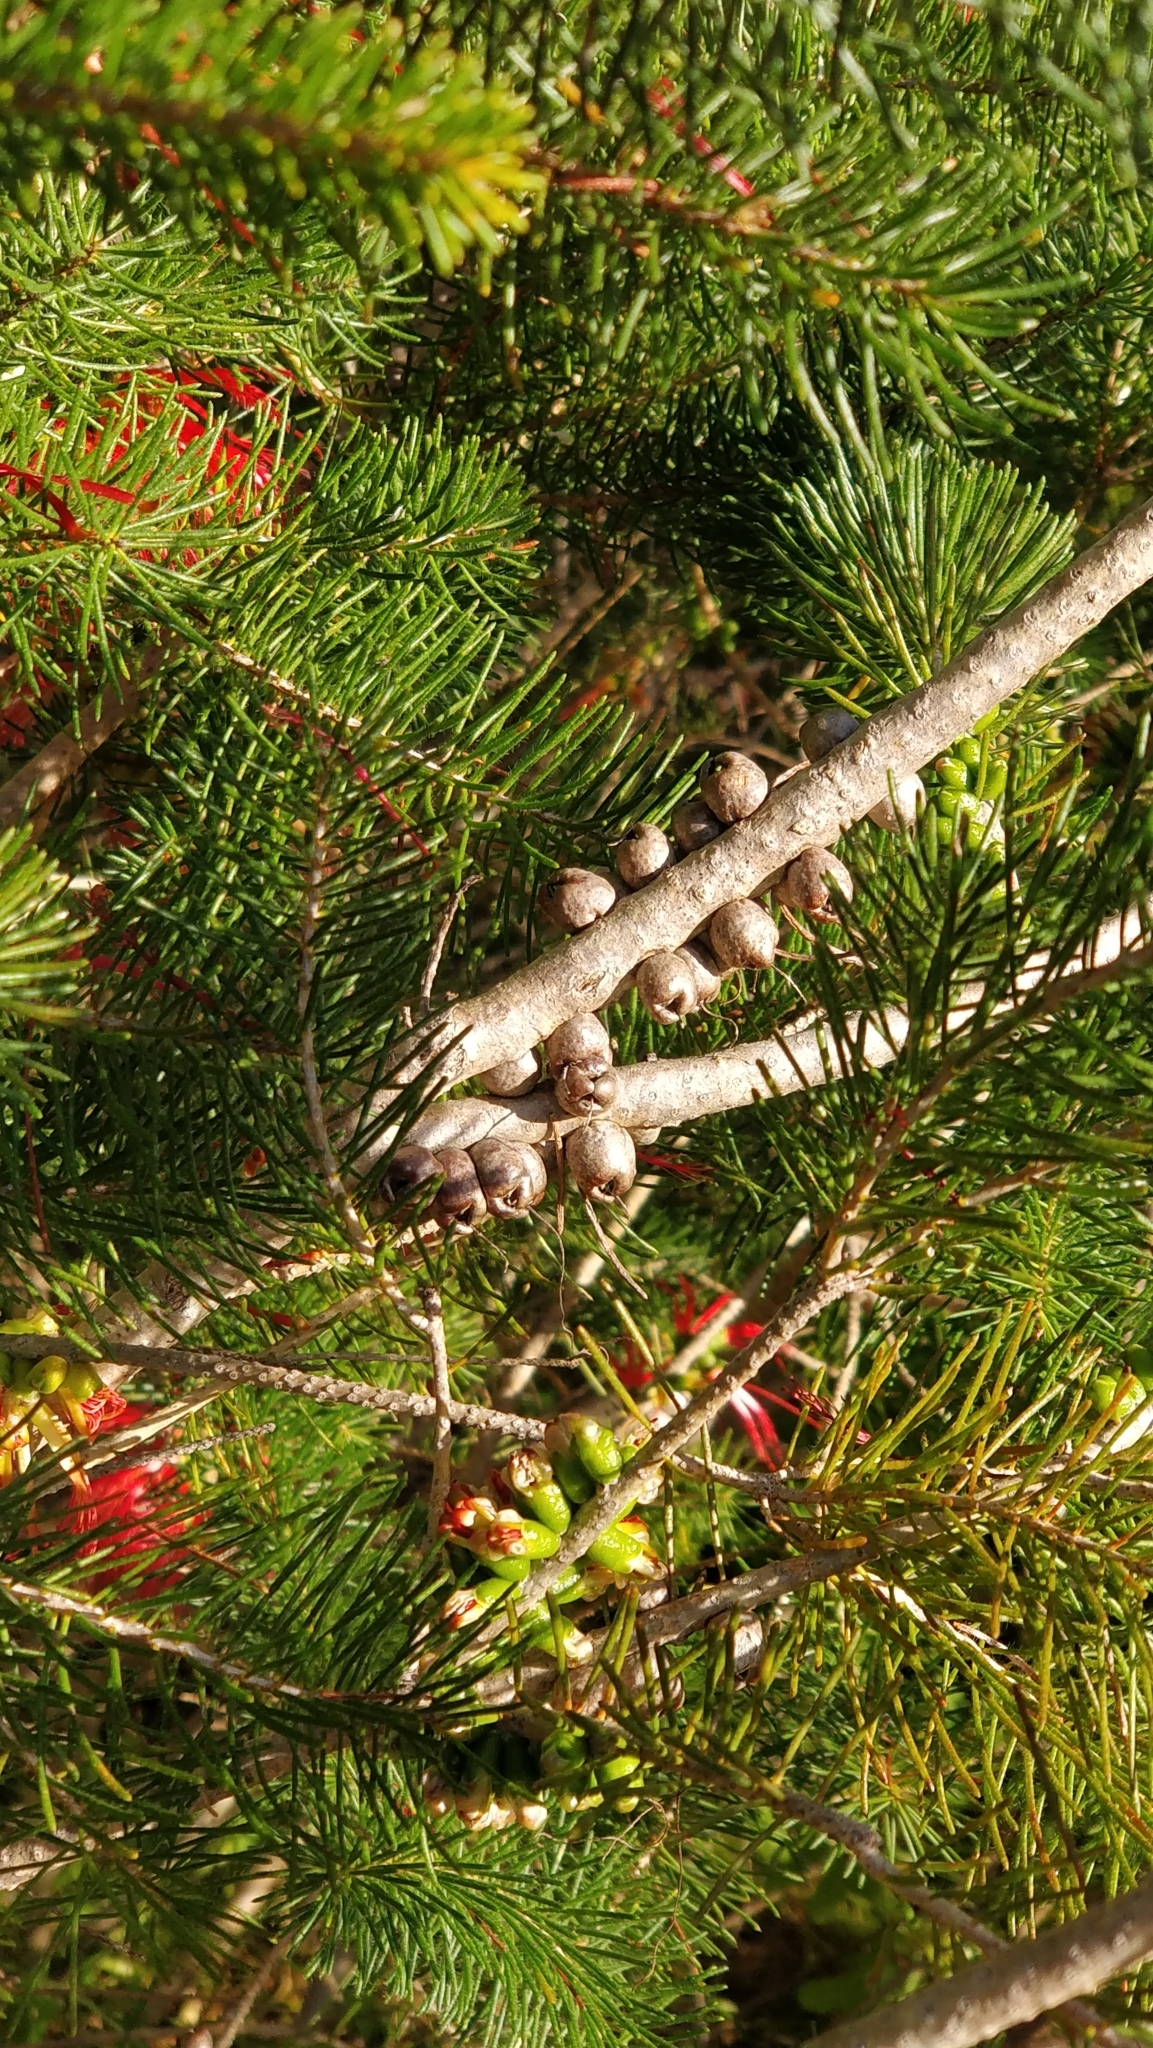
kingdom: Plantae
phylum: Tracheophyta
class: Magnoliopsida
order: Myrtales
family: Myrtaceae
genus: Melaleuca
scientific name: Melaleuca quadrifida
